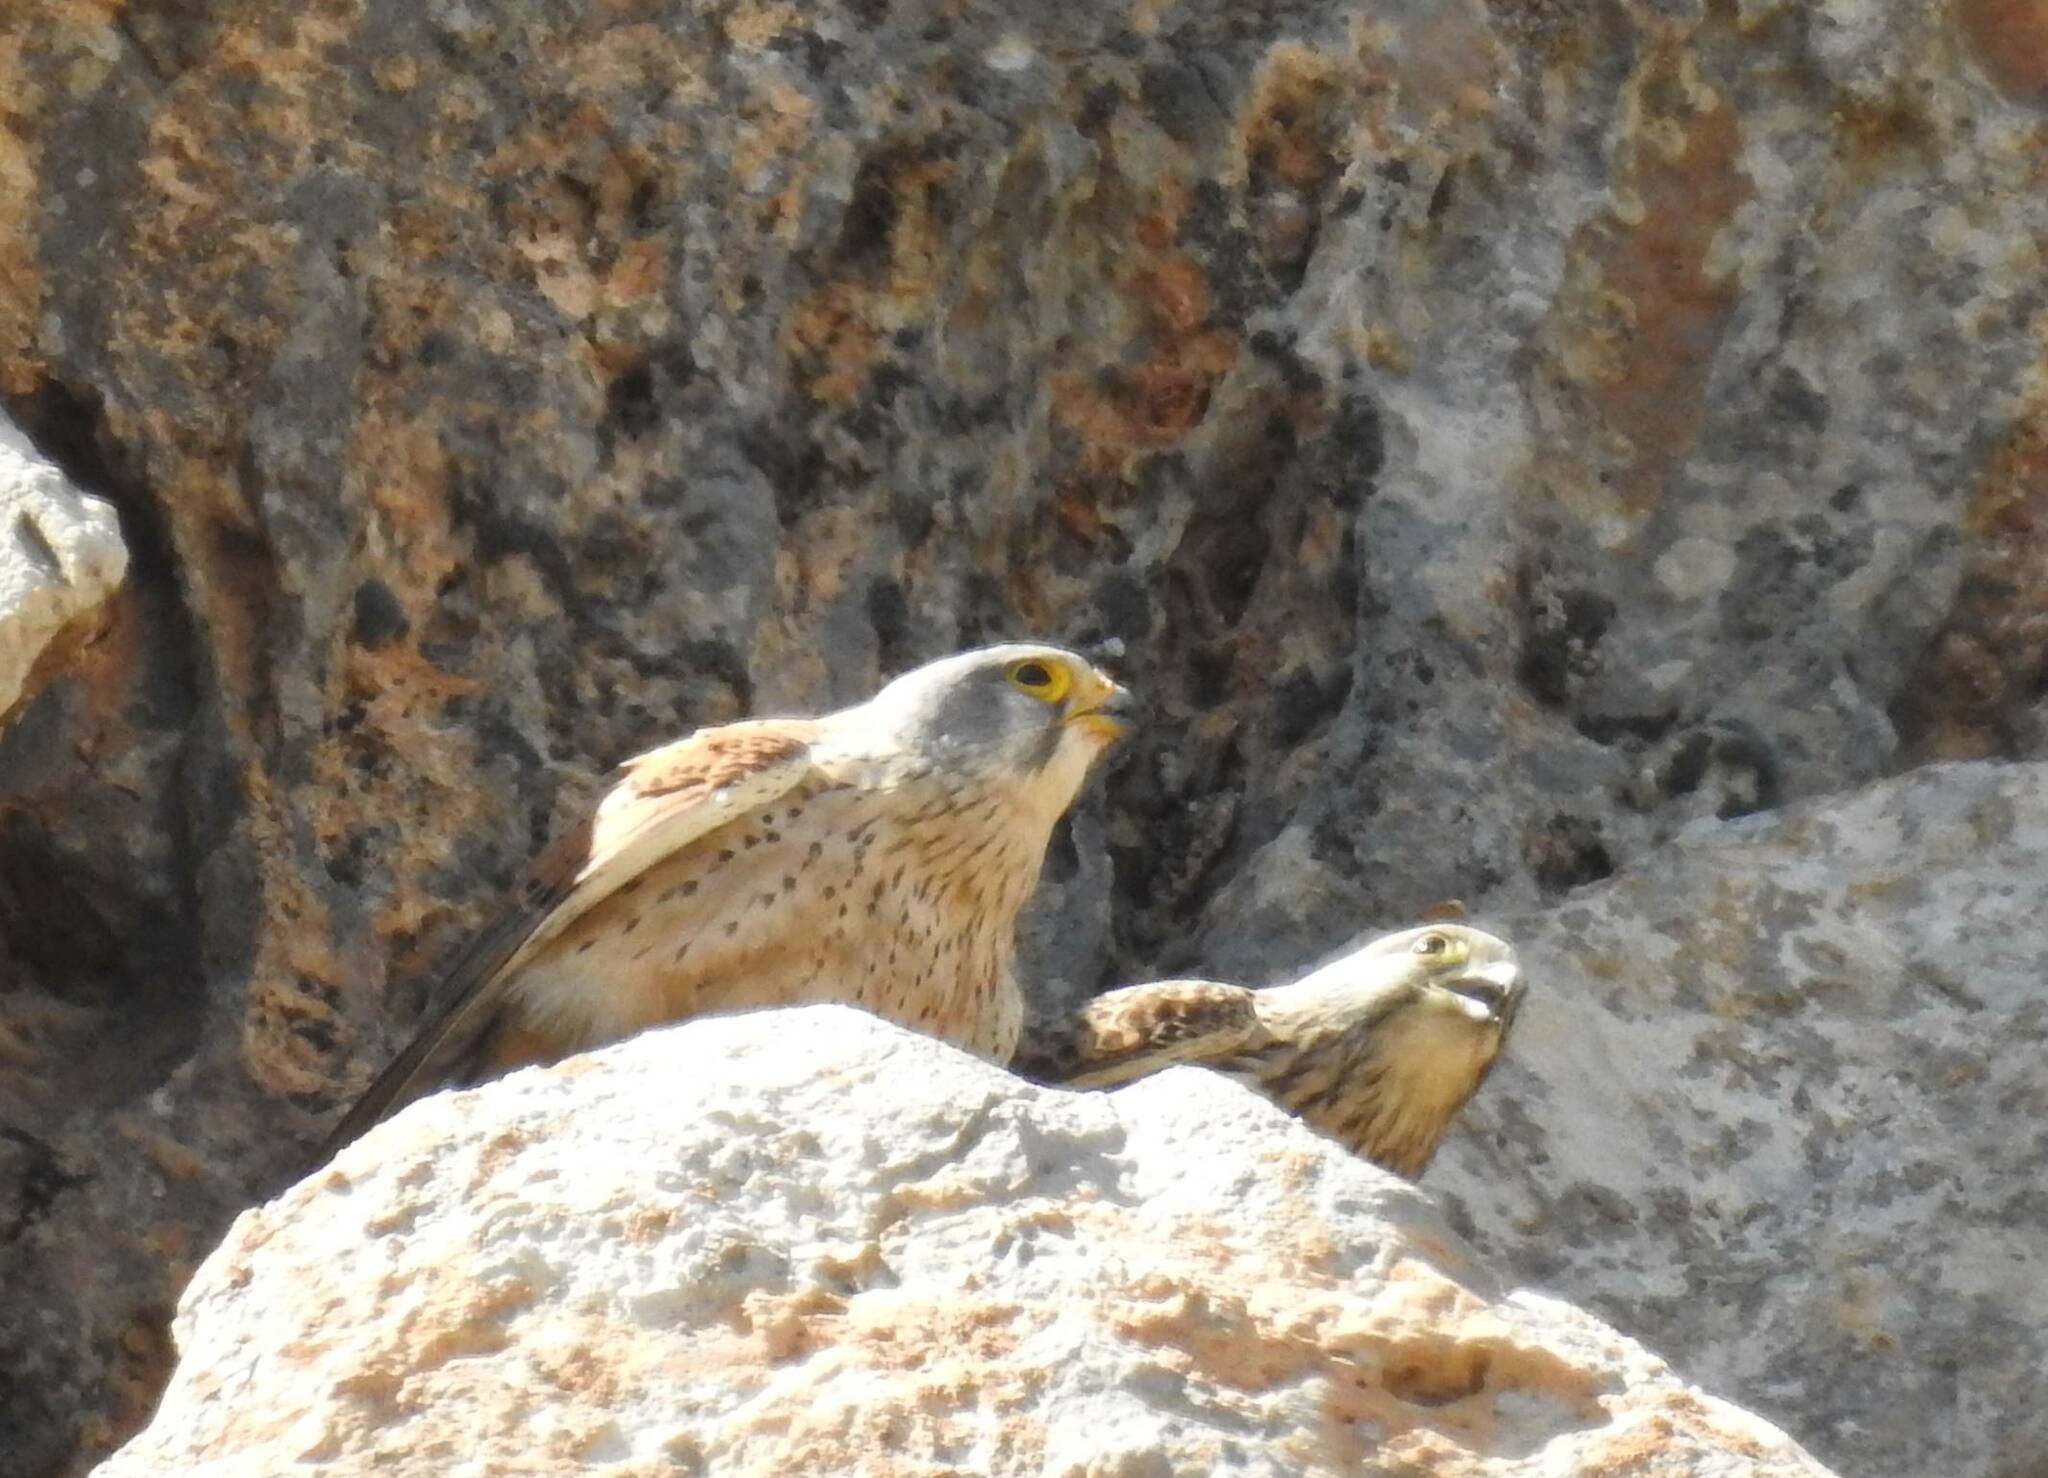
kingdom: Animalia
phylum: Chordata
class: Aves
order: Falconiformes
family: Falconidae
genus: Falco
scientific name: Falco tinnunculus
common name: Common kestrel
